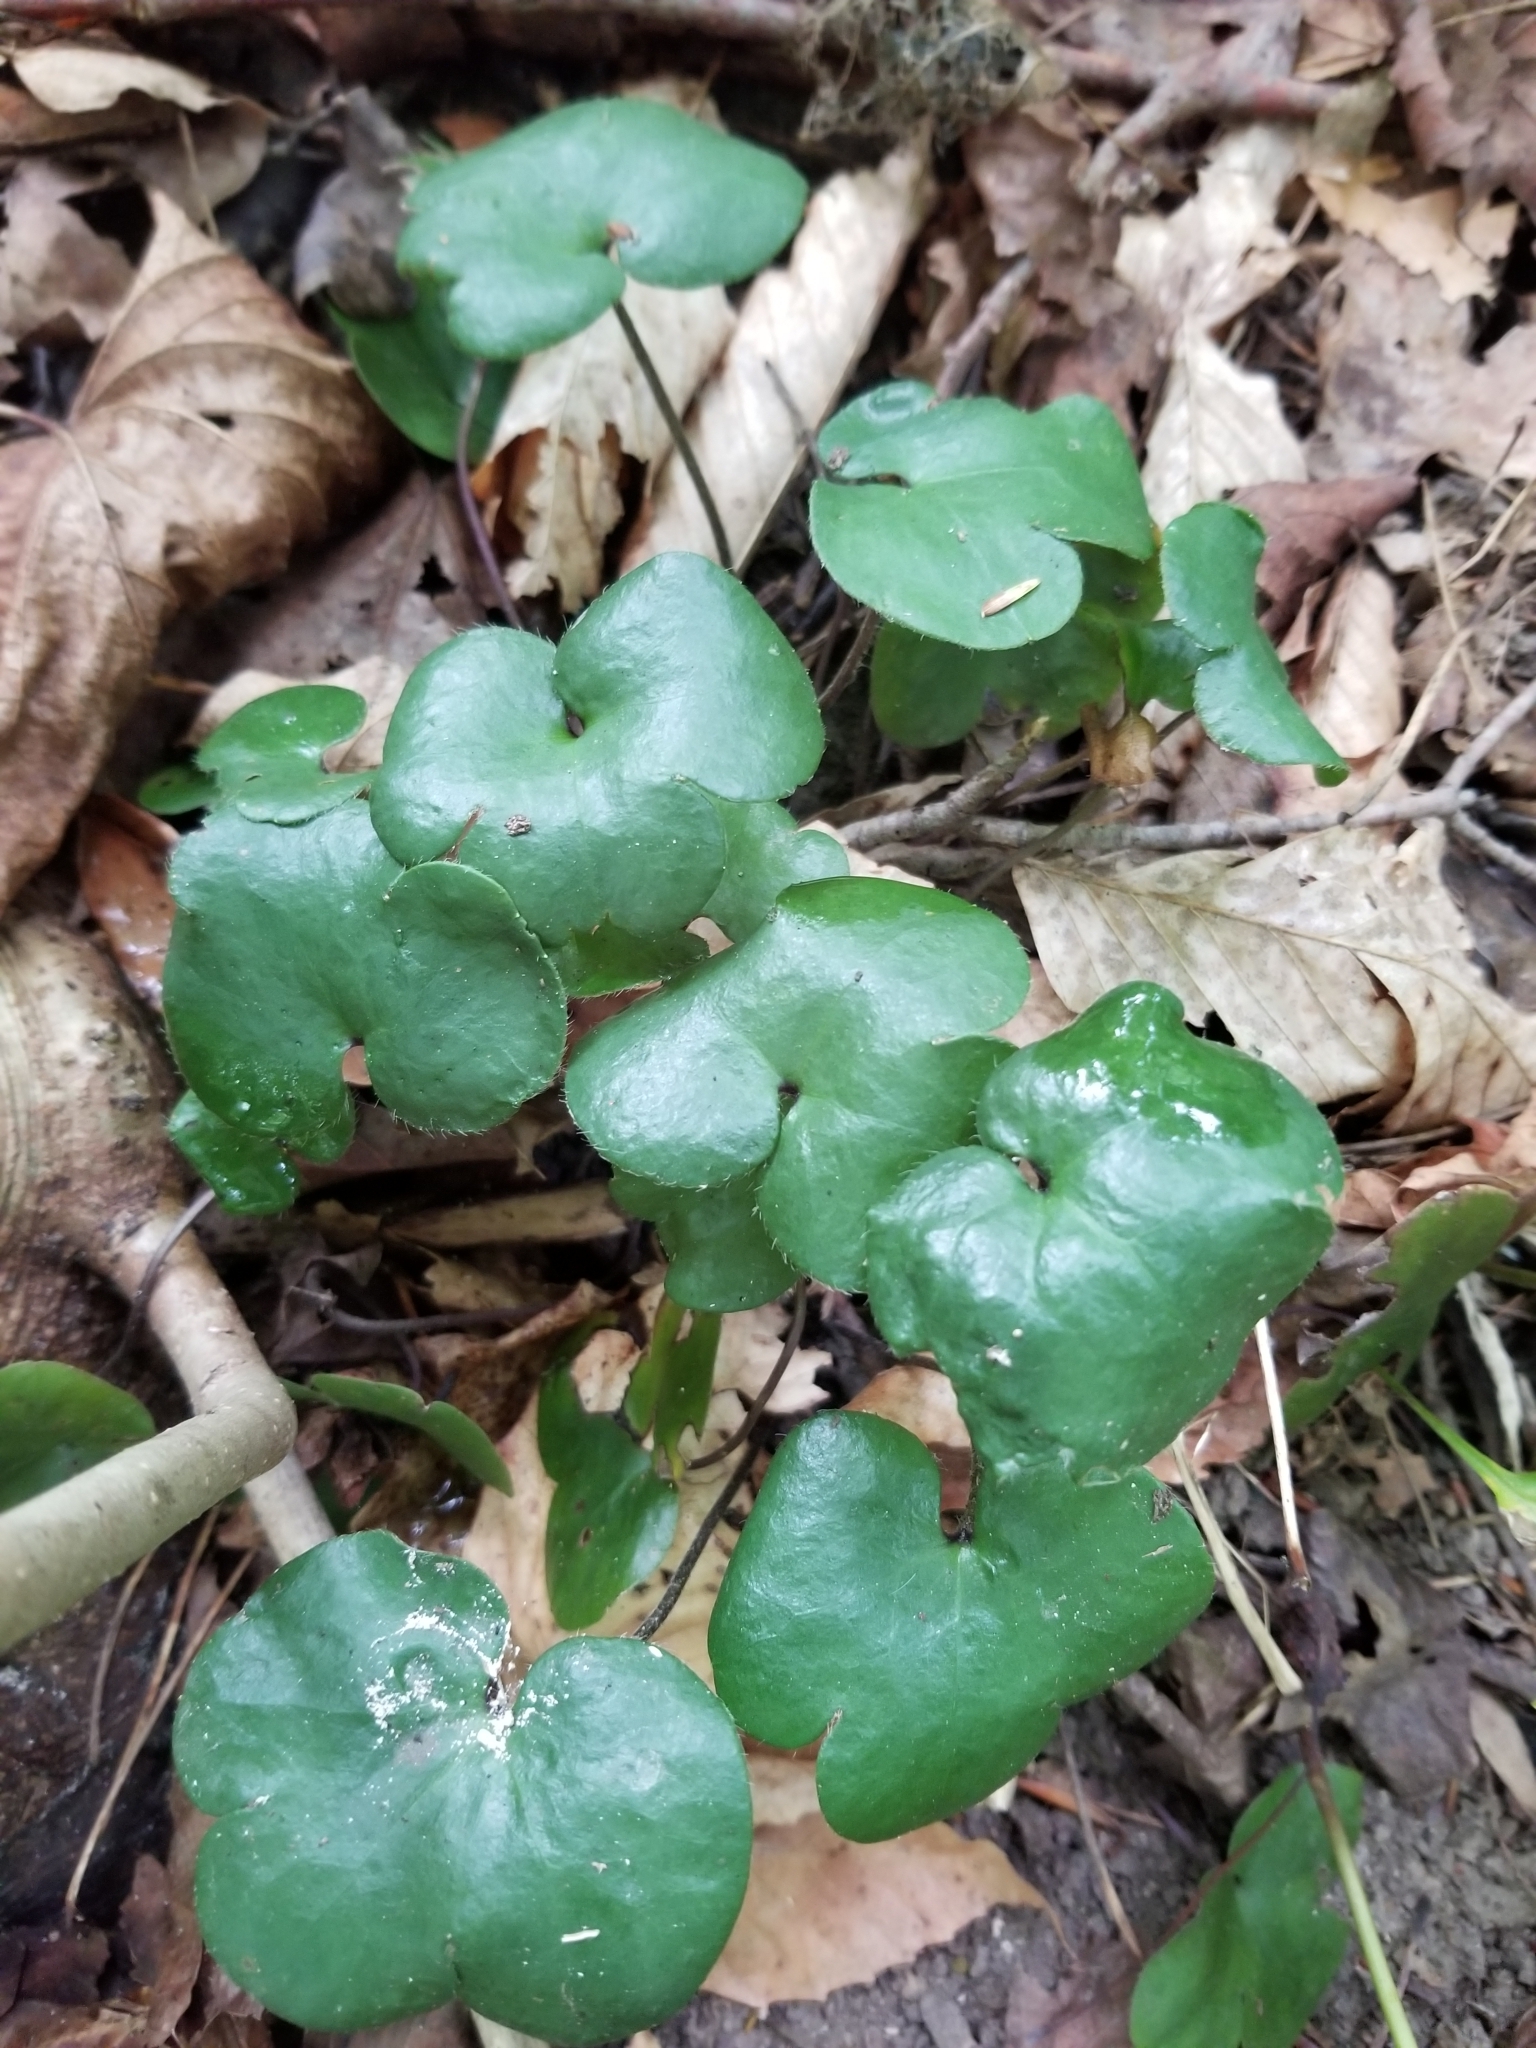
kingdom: Plantae
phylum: Tracheophyta
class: Magnoliopsida
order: Ranunculales
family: Ranunculaceae
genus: Hepatica
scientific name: Hepatica americana
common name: American hepatica
